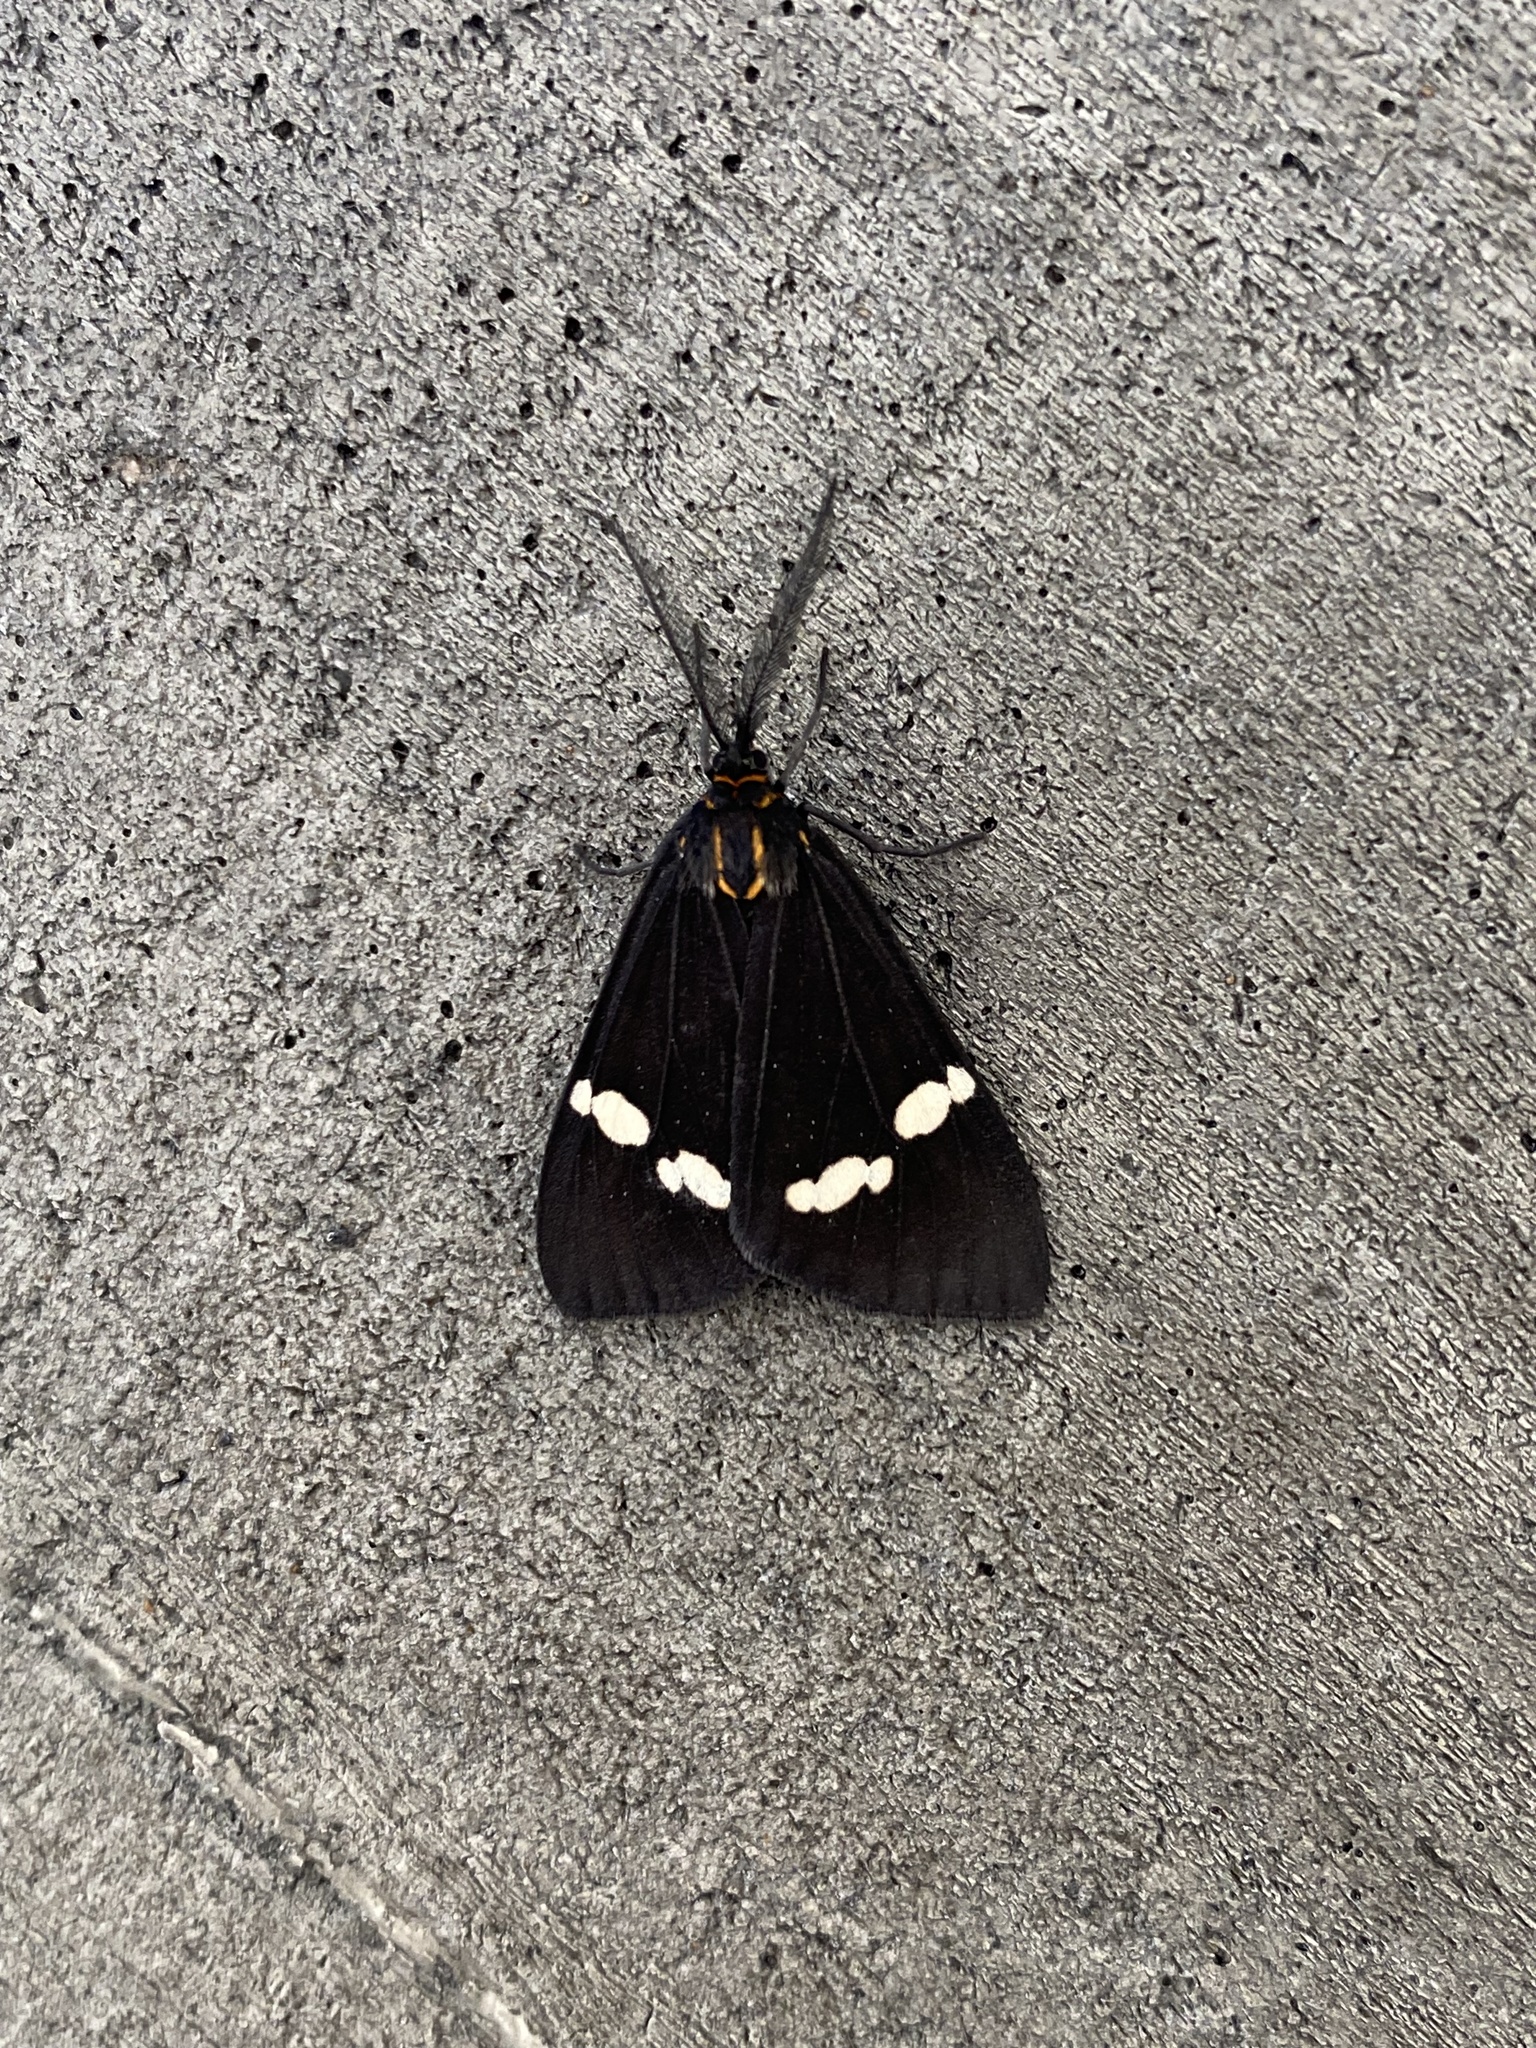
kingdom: Animalia
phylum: Arthropoda
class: Insecta
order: Lepidoptera
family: Erebidae
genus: Nyctemera
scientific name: Nyctemera annulatum
